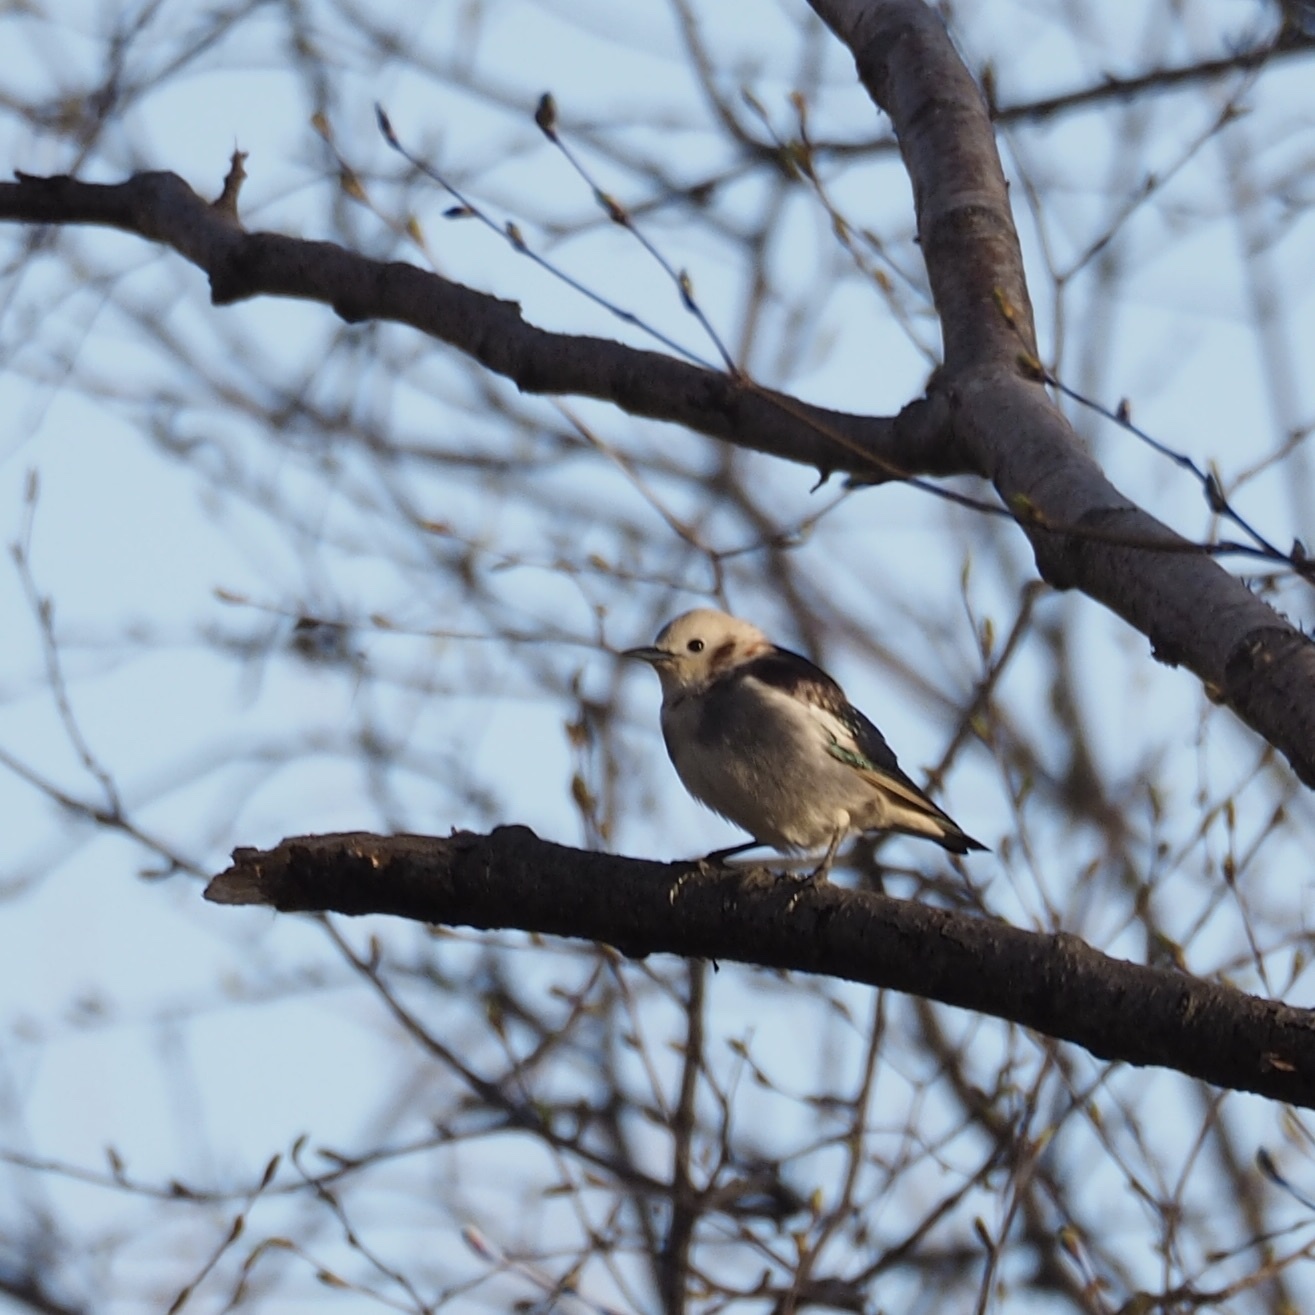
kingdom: Animalia
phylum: Chordata
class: Aves
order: Passeriformes
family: Sturnidae
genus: Agropsar
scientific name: Agropsar philippensis
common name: Chestnut-cheeked starling
